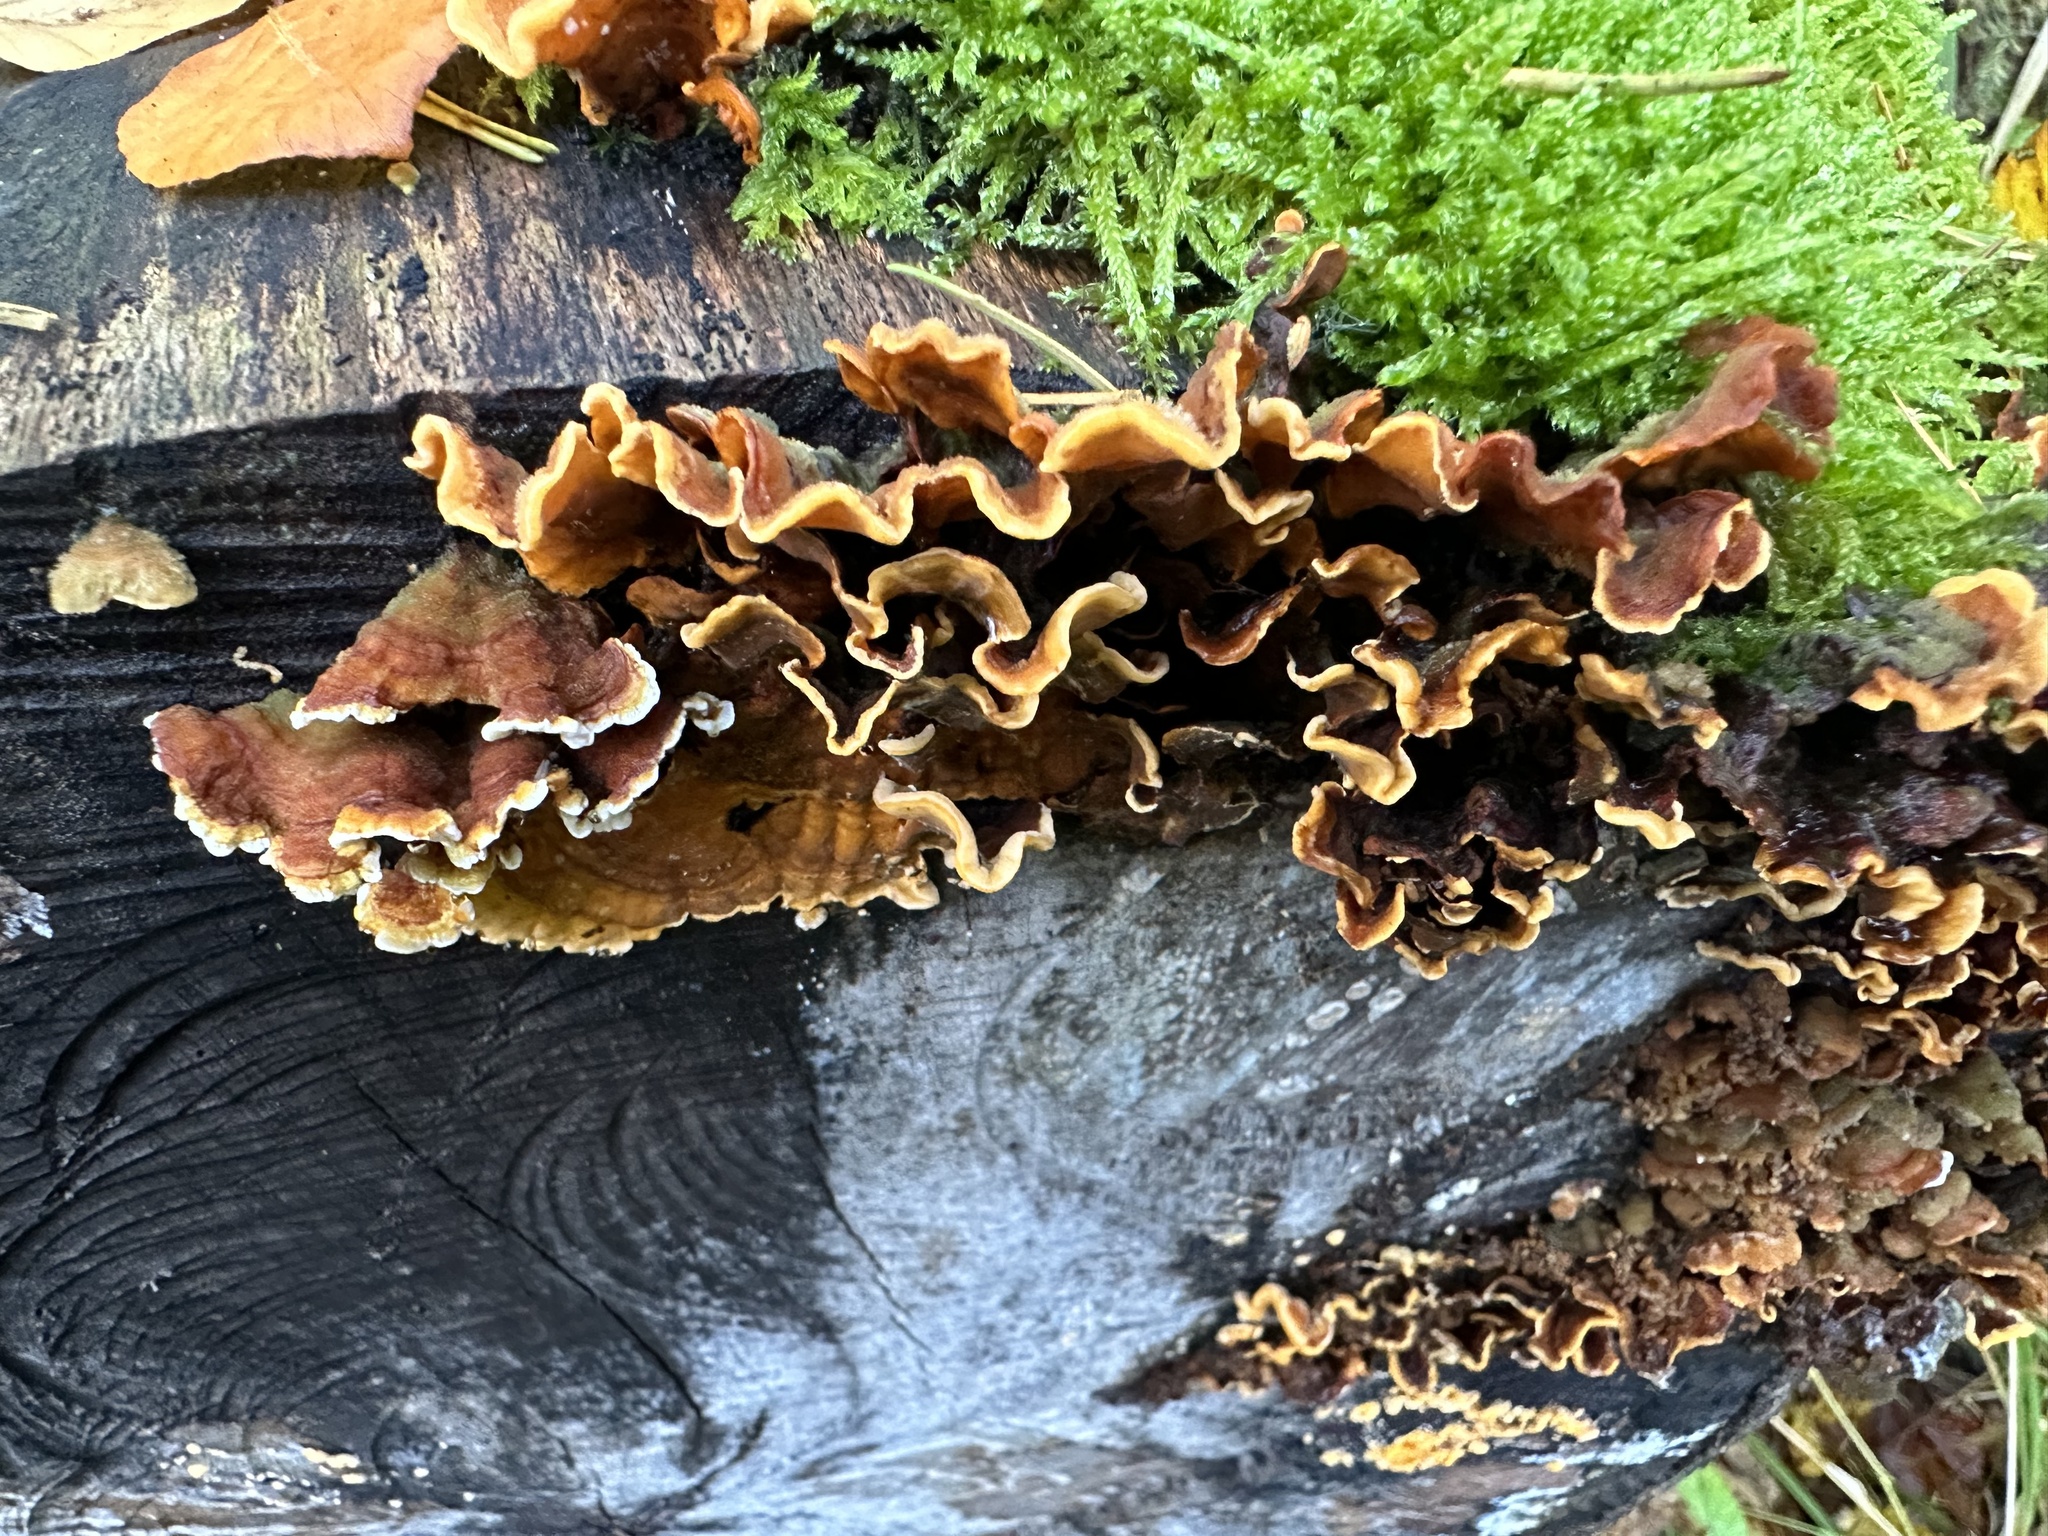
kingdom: Fungi
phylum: Basidiomycota
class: Agaricomycetes
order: Russulales
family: Stereaceae
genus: Stereum
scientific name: Stereum hirsutum
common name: Hairy curtain crust
